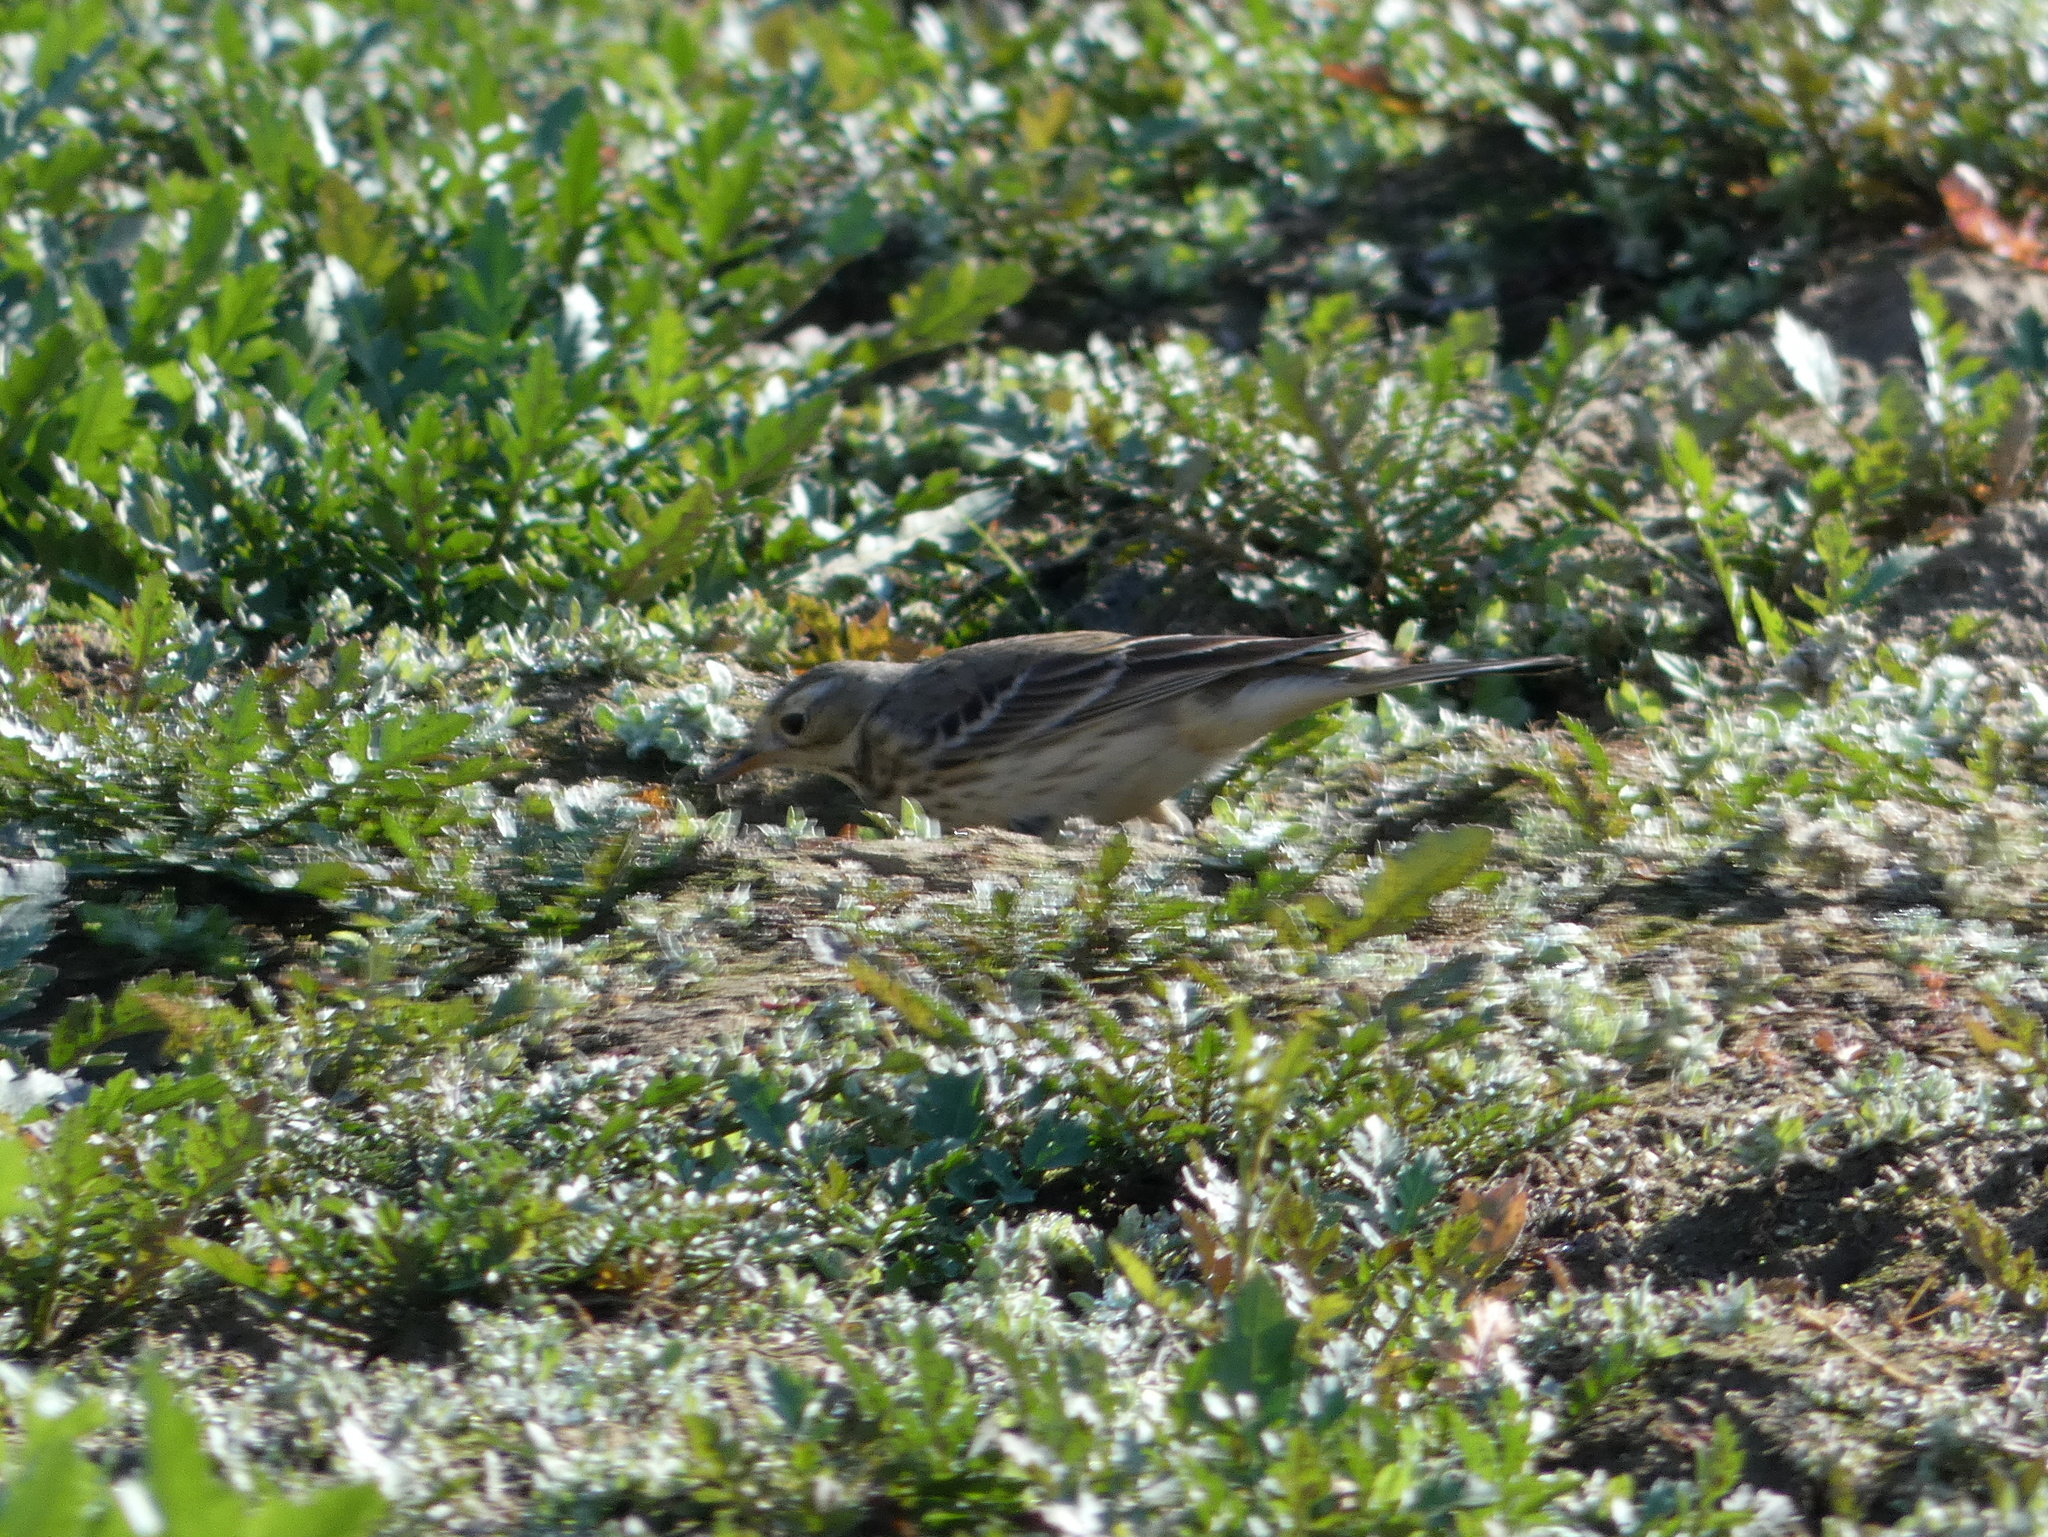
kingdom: Animalia
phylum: Chordata
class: Aves
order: Passeriformes
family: Motacillidae
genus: Anthus
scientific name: Anthus rubescens
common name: Buff-bellied pipit
